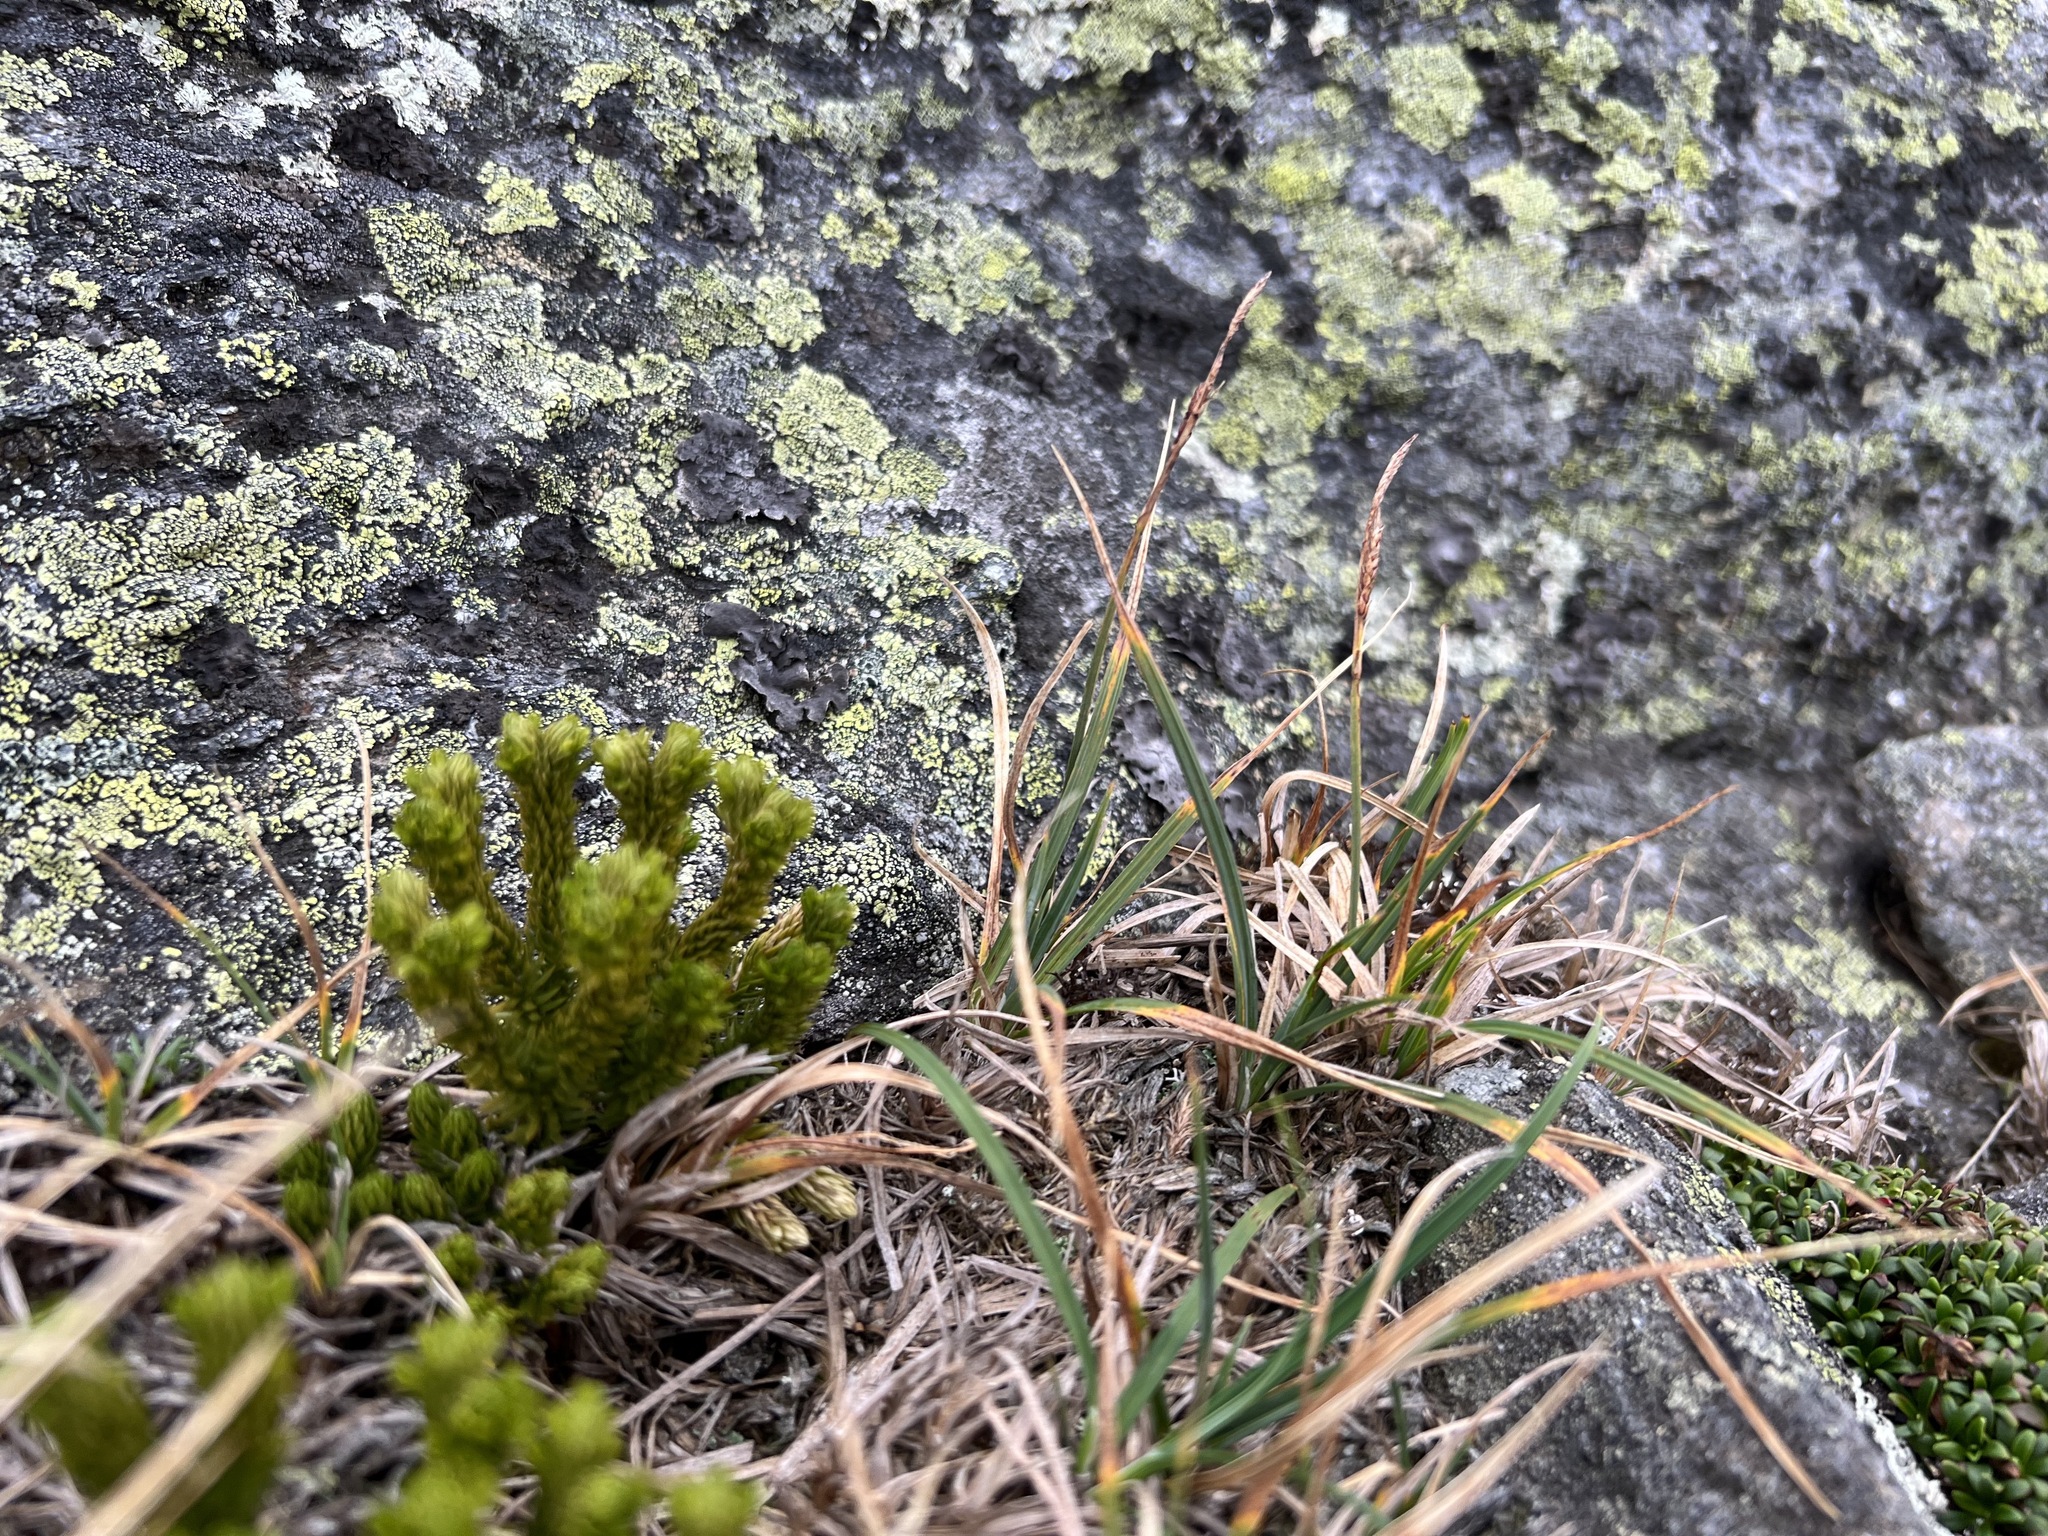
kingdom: Plantae
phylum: Tracheophyta
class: Lycopodiopsida
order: Lycopodiales
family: Lycopodiaceae
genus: Huperzia
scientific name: Huperzia selago
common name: Northern firmoss
